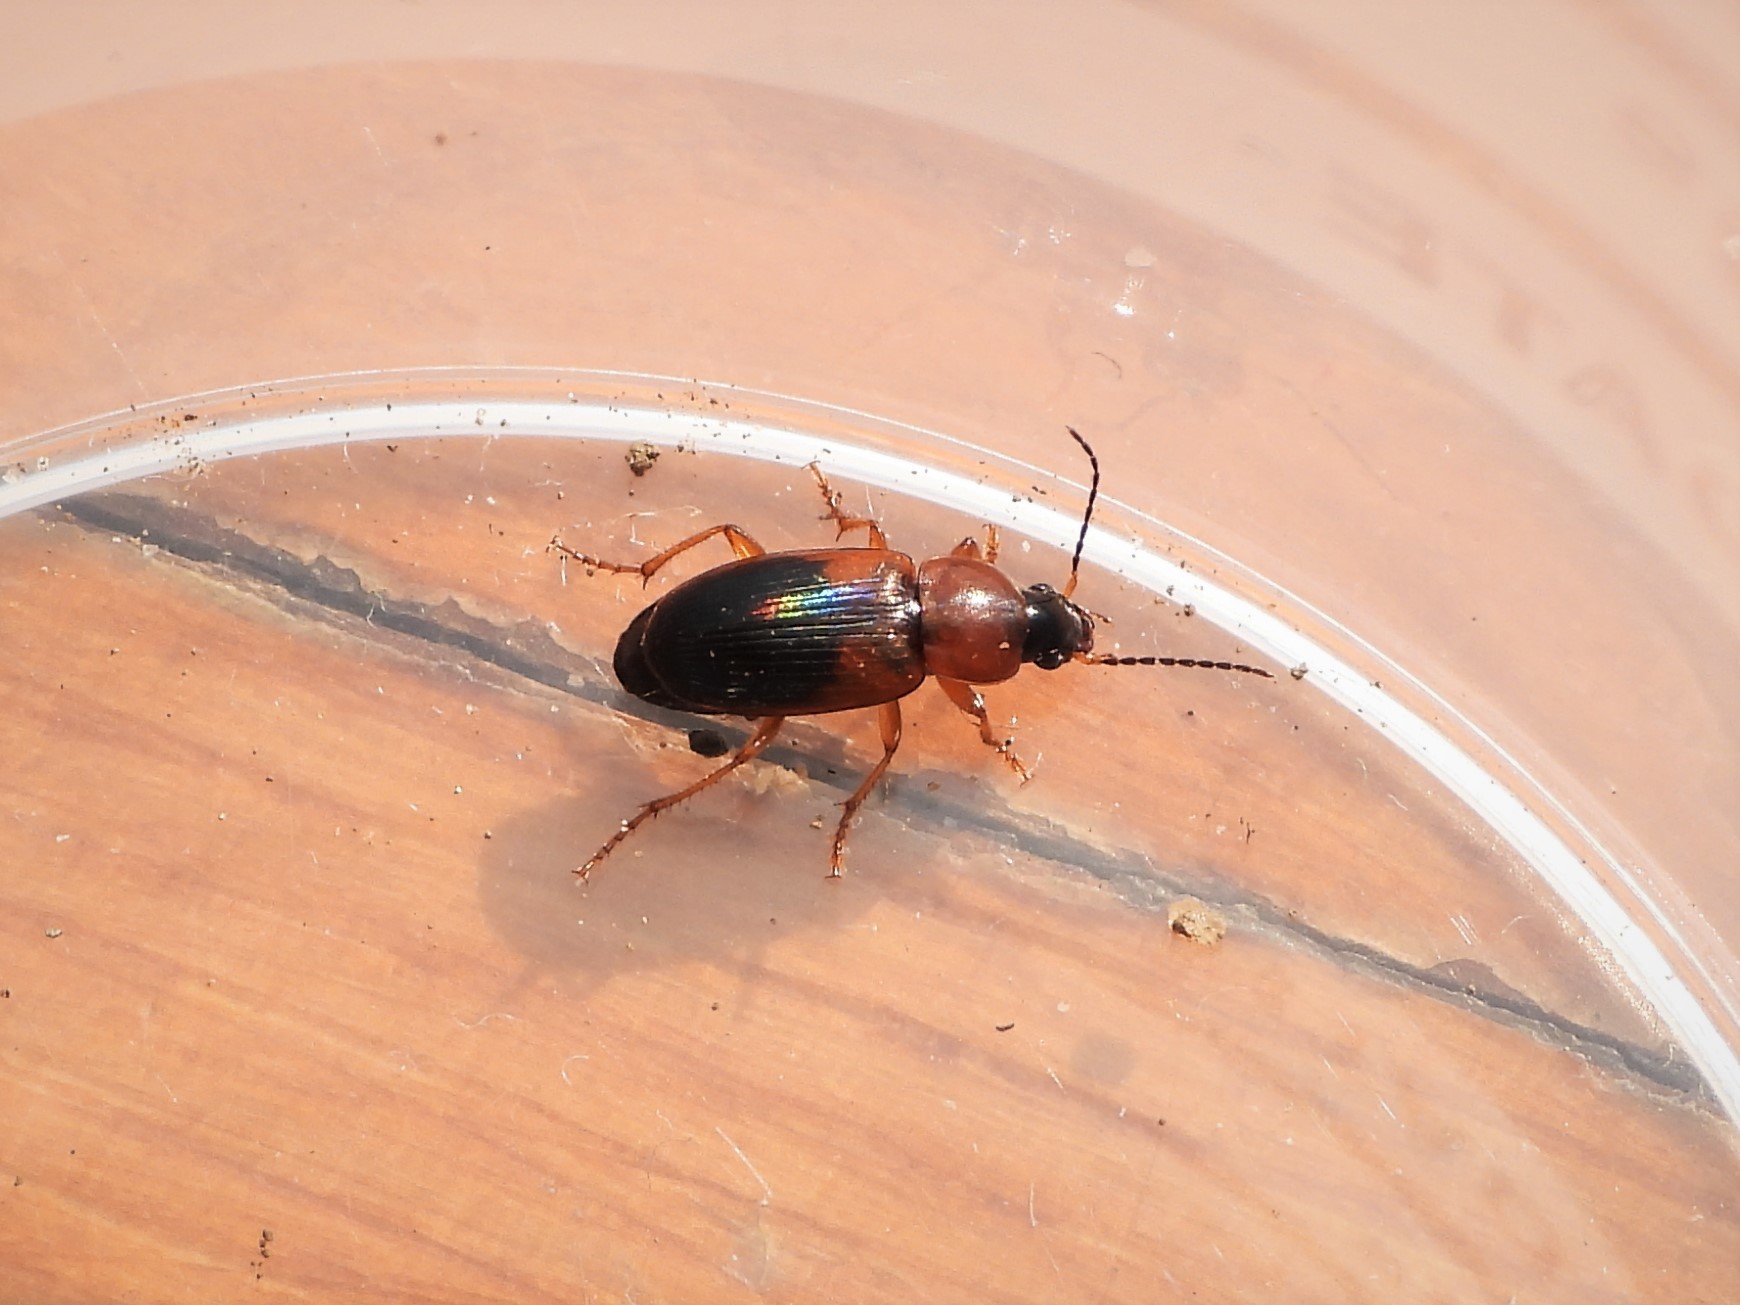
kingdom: Animalia
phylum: Arthropoda
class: Insecta
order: Coleoptera
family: Carabidae
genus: Stenolophus
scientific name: Stenolophus teutonus
